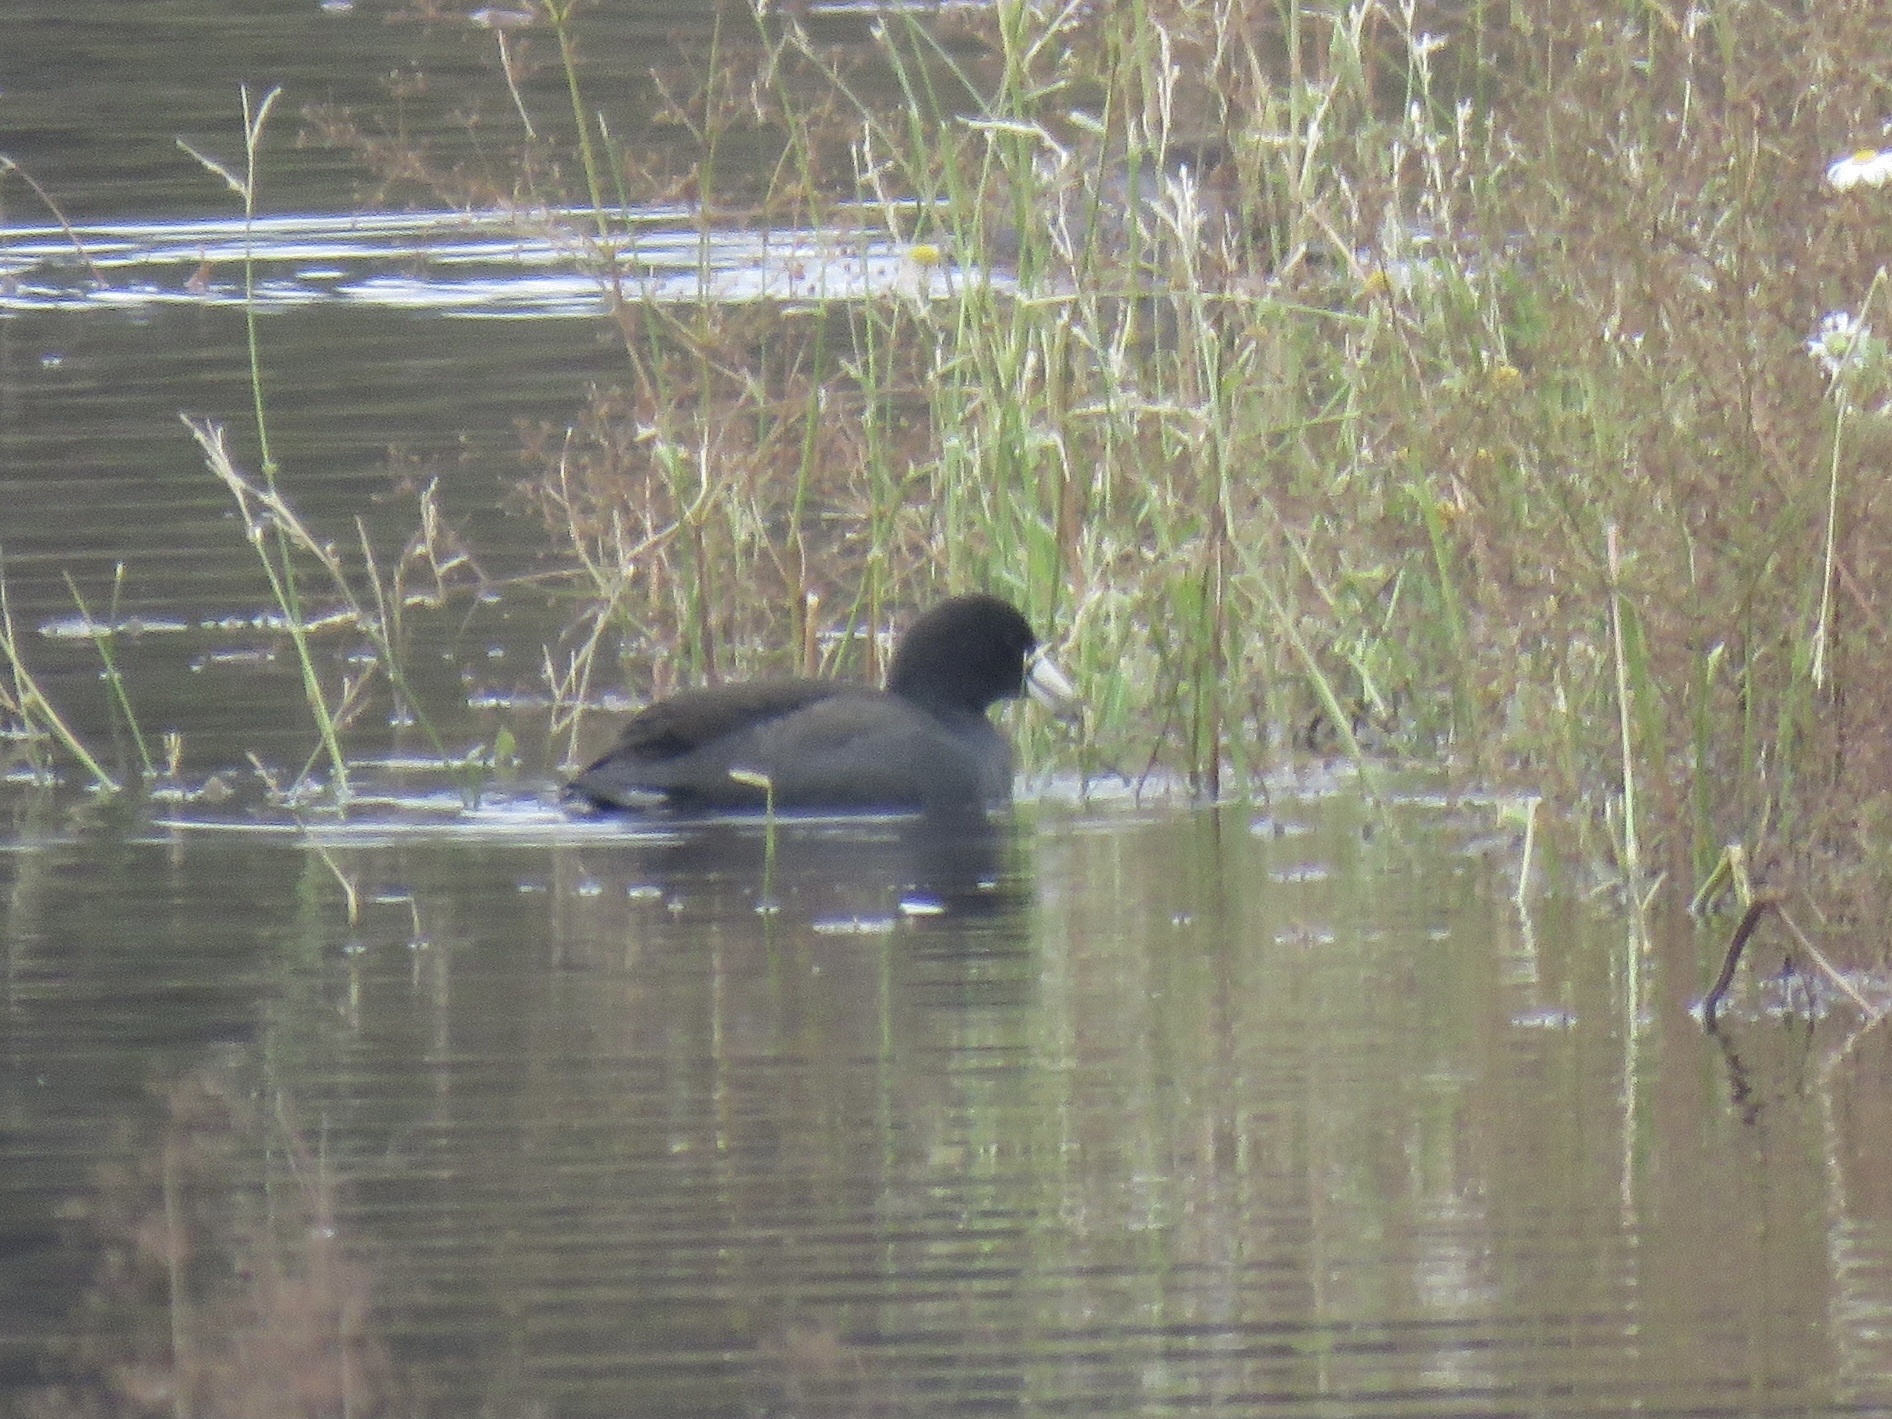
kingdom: Animalia
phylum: Chordata
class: Aves
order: Gruiformes
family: Rallidae
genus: Fulica
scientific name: Fulica americana
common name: American coot
